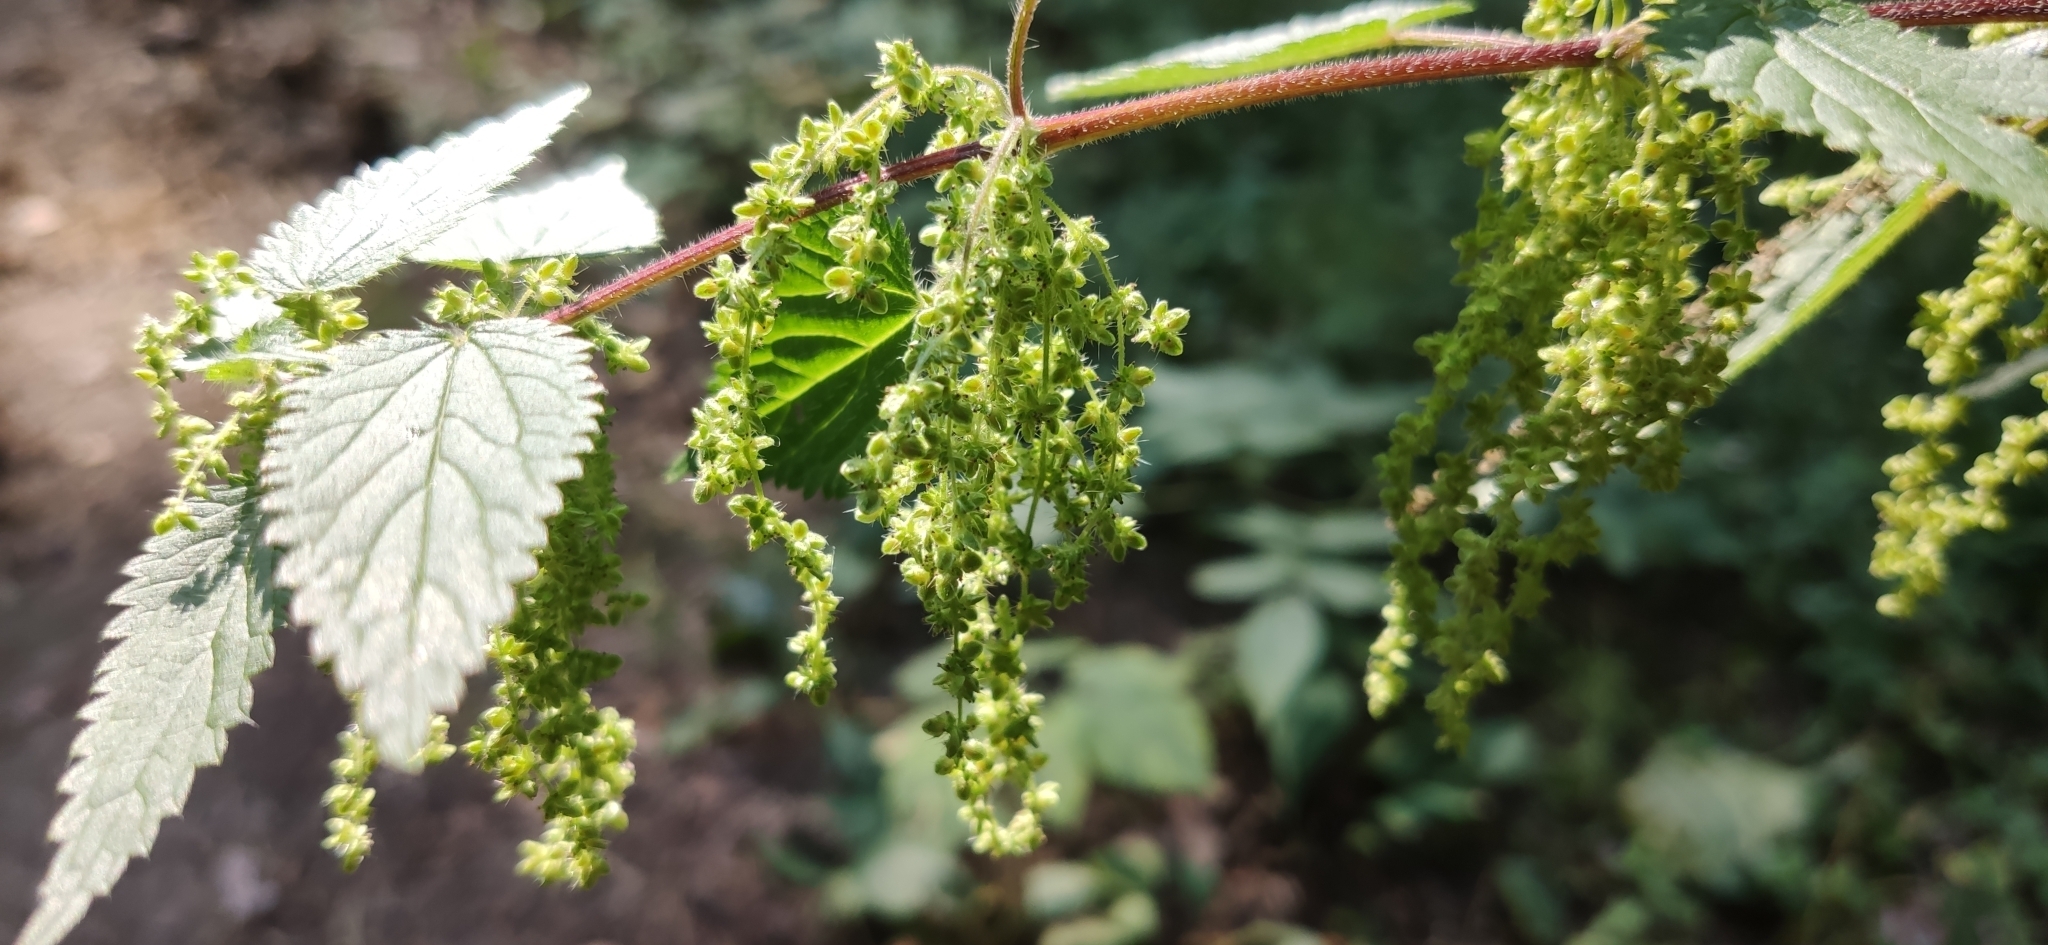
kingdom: Plantae
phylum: Tracheophyta
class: Magnoliopsida
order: Rosales
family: Urticaceae
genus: Urtica
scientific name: Urtica dioica
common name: Common nettle
